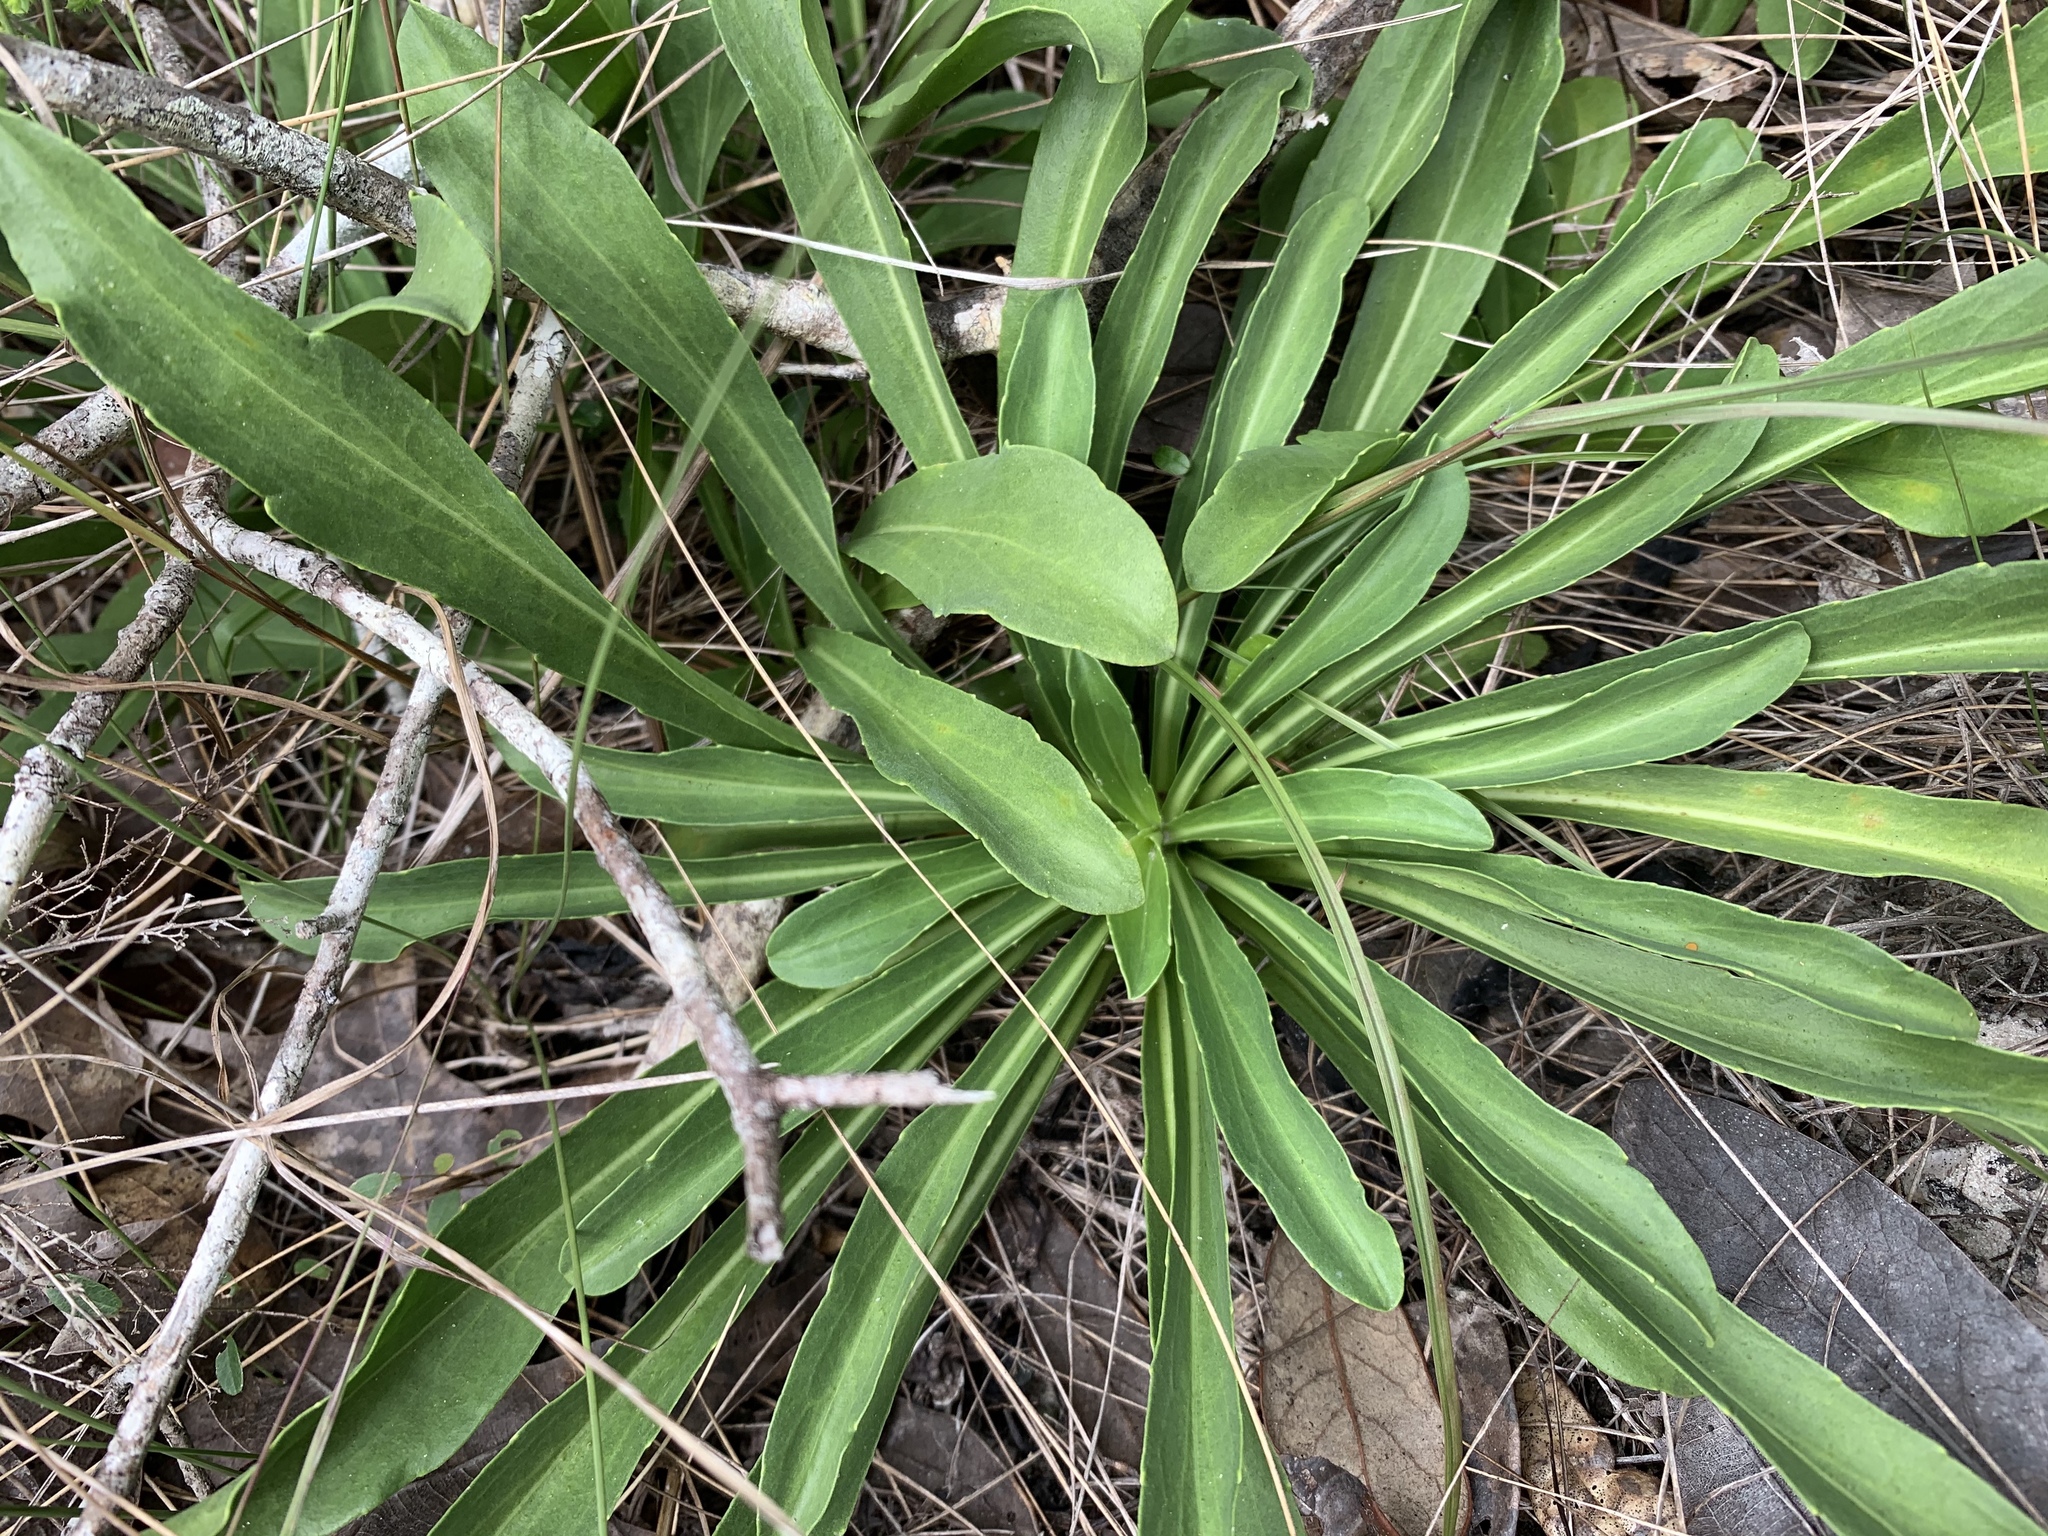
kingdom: Plantae
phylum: Tracheophyta
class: Magnoliopsida
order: Asterales
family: Asteraceae
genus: Carphephorus
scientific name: Carphephorus corymbosus
